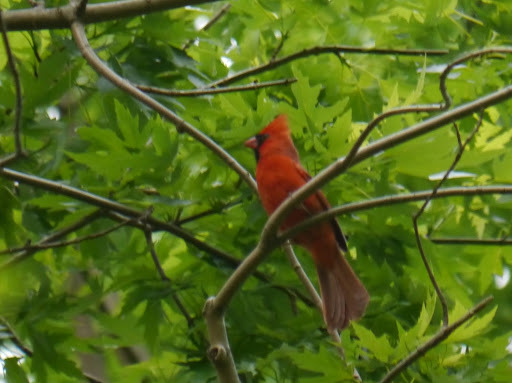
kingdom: Animalia
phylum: Chordata
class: Aves
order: Passeriformes
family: Cardinalidae
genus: Cardinalis
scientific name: Cardinalis cardinalis
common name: Northern cardinal
